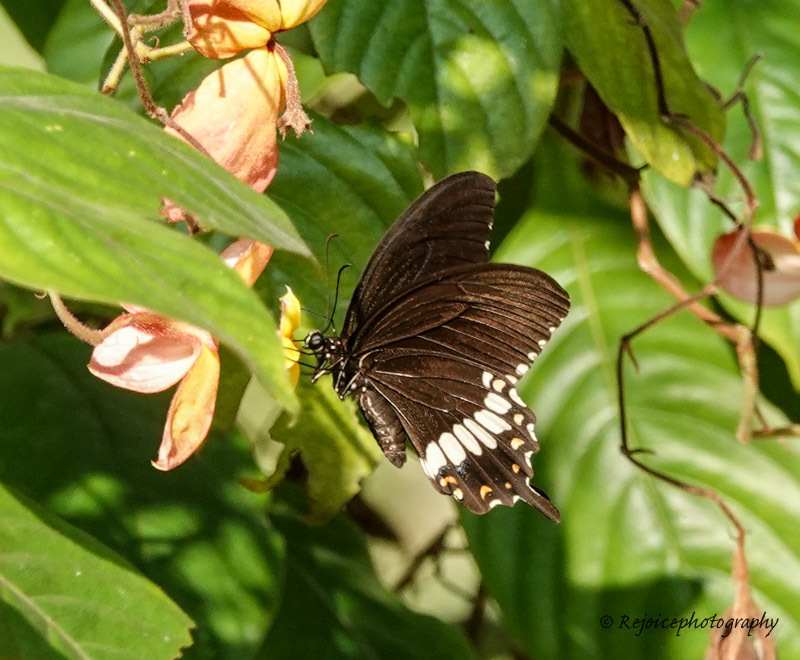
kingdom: Animalia
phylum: Arthropoda
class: Insecta
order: Lepidoptera
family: Papilionidae
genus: Papilio
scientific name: Papilio polytes
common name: Common mormon
